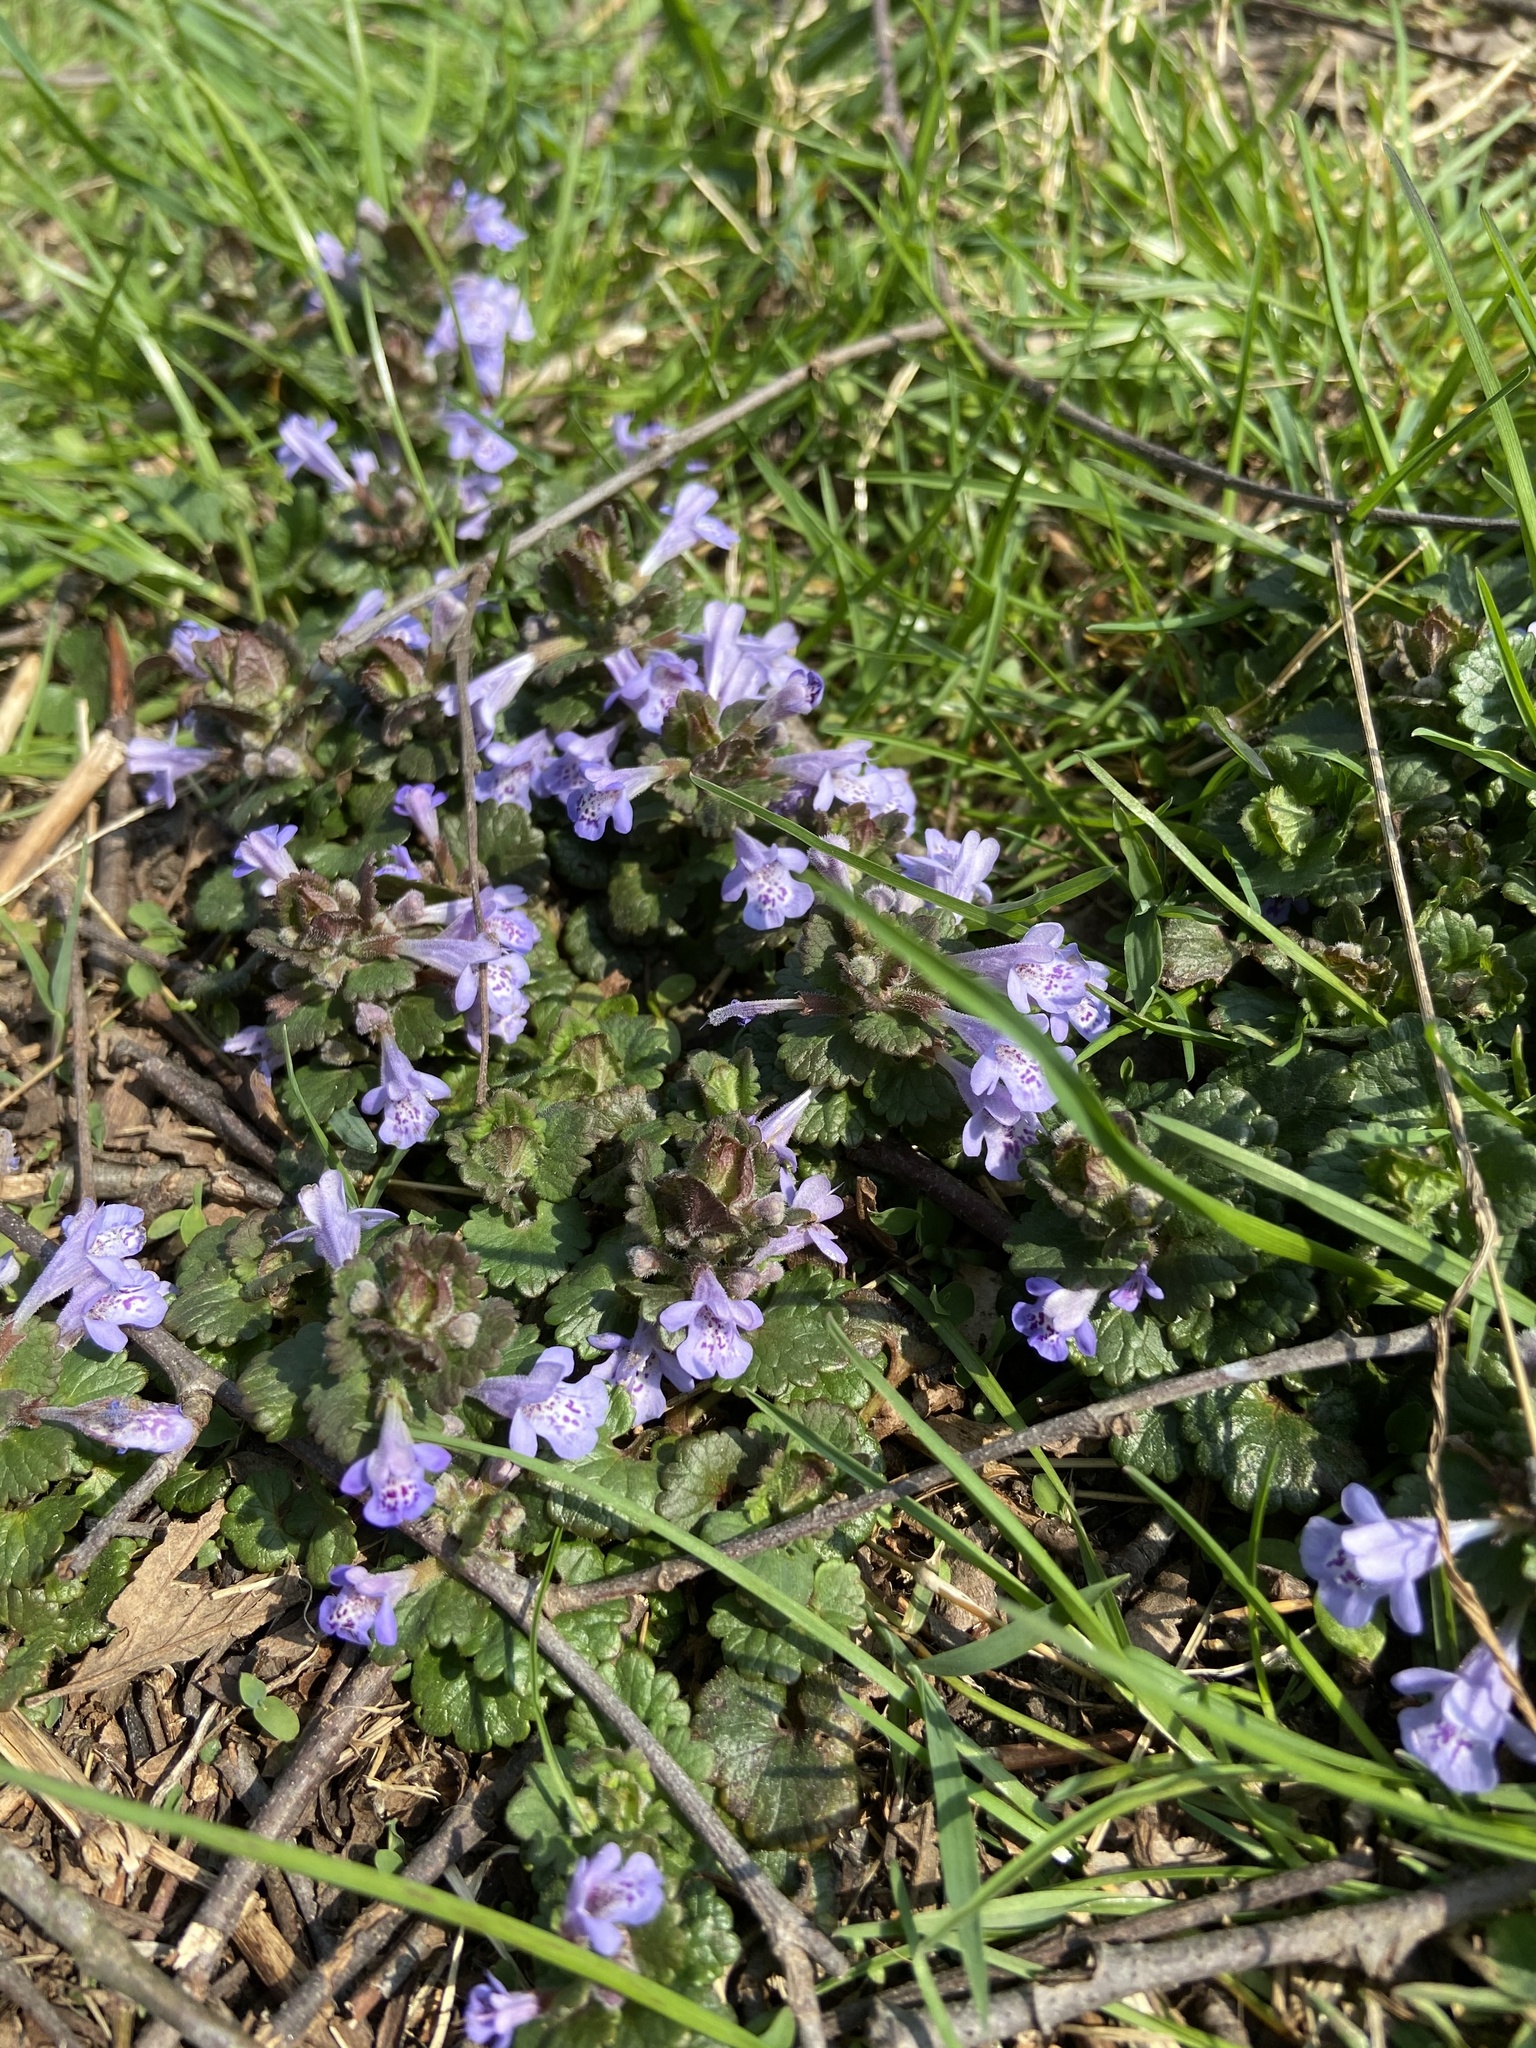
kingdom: Plantae
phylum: Tracheophyta
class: Magnoliopsida
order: Lamiales
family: Lamiaceae
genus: Glechoma
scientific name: Glechoma hederacea
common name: Ground ivy
